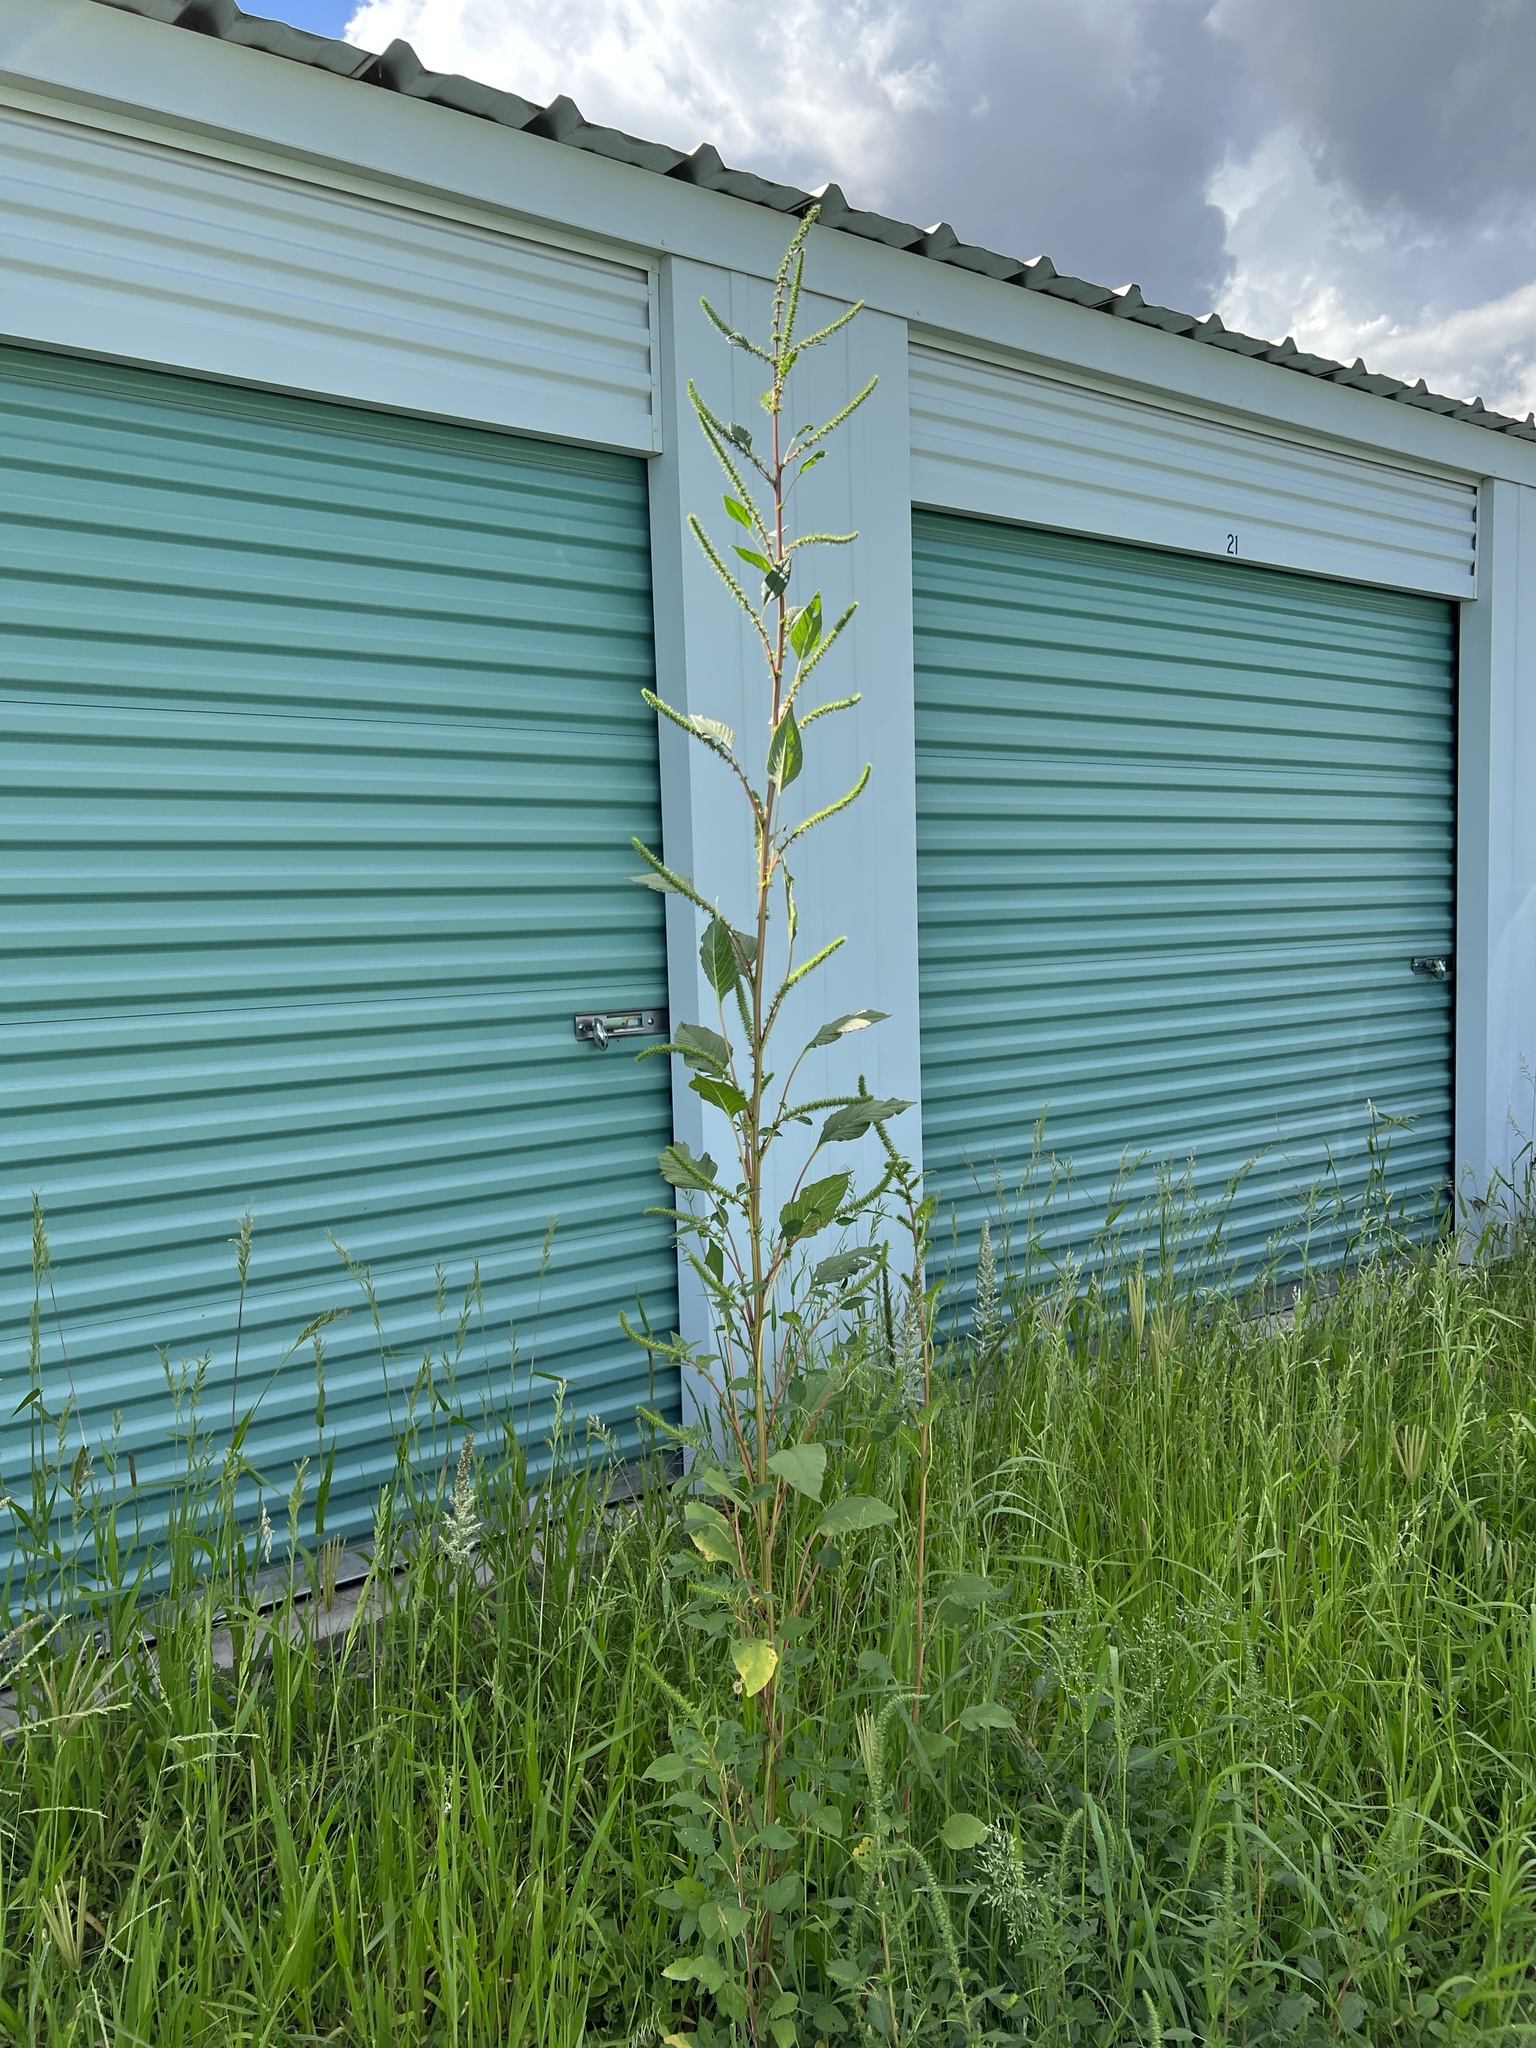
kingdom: Plantae
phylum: Tracheophyta
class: Magnoliopsida
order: Caryophyllales
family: Amaranthaceae
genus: Amaranthus
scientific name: Amaranthus palmeri
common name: Dioecious amaranth
